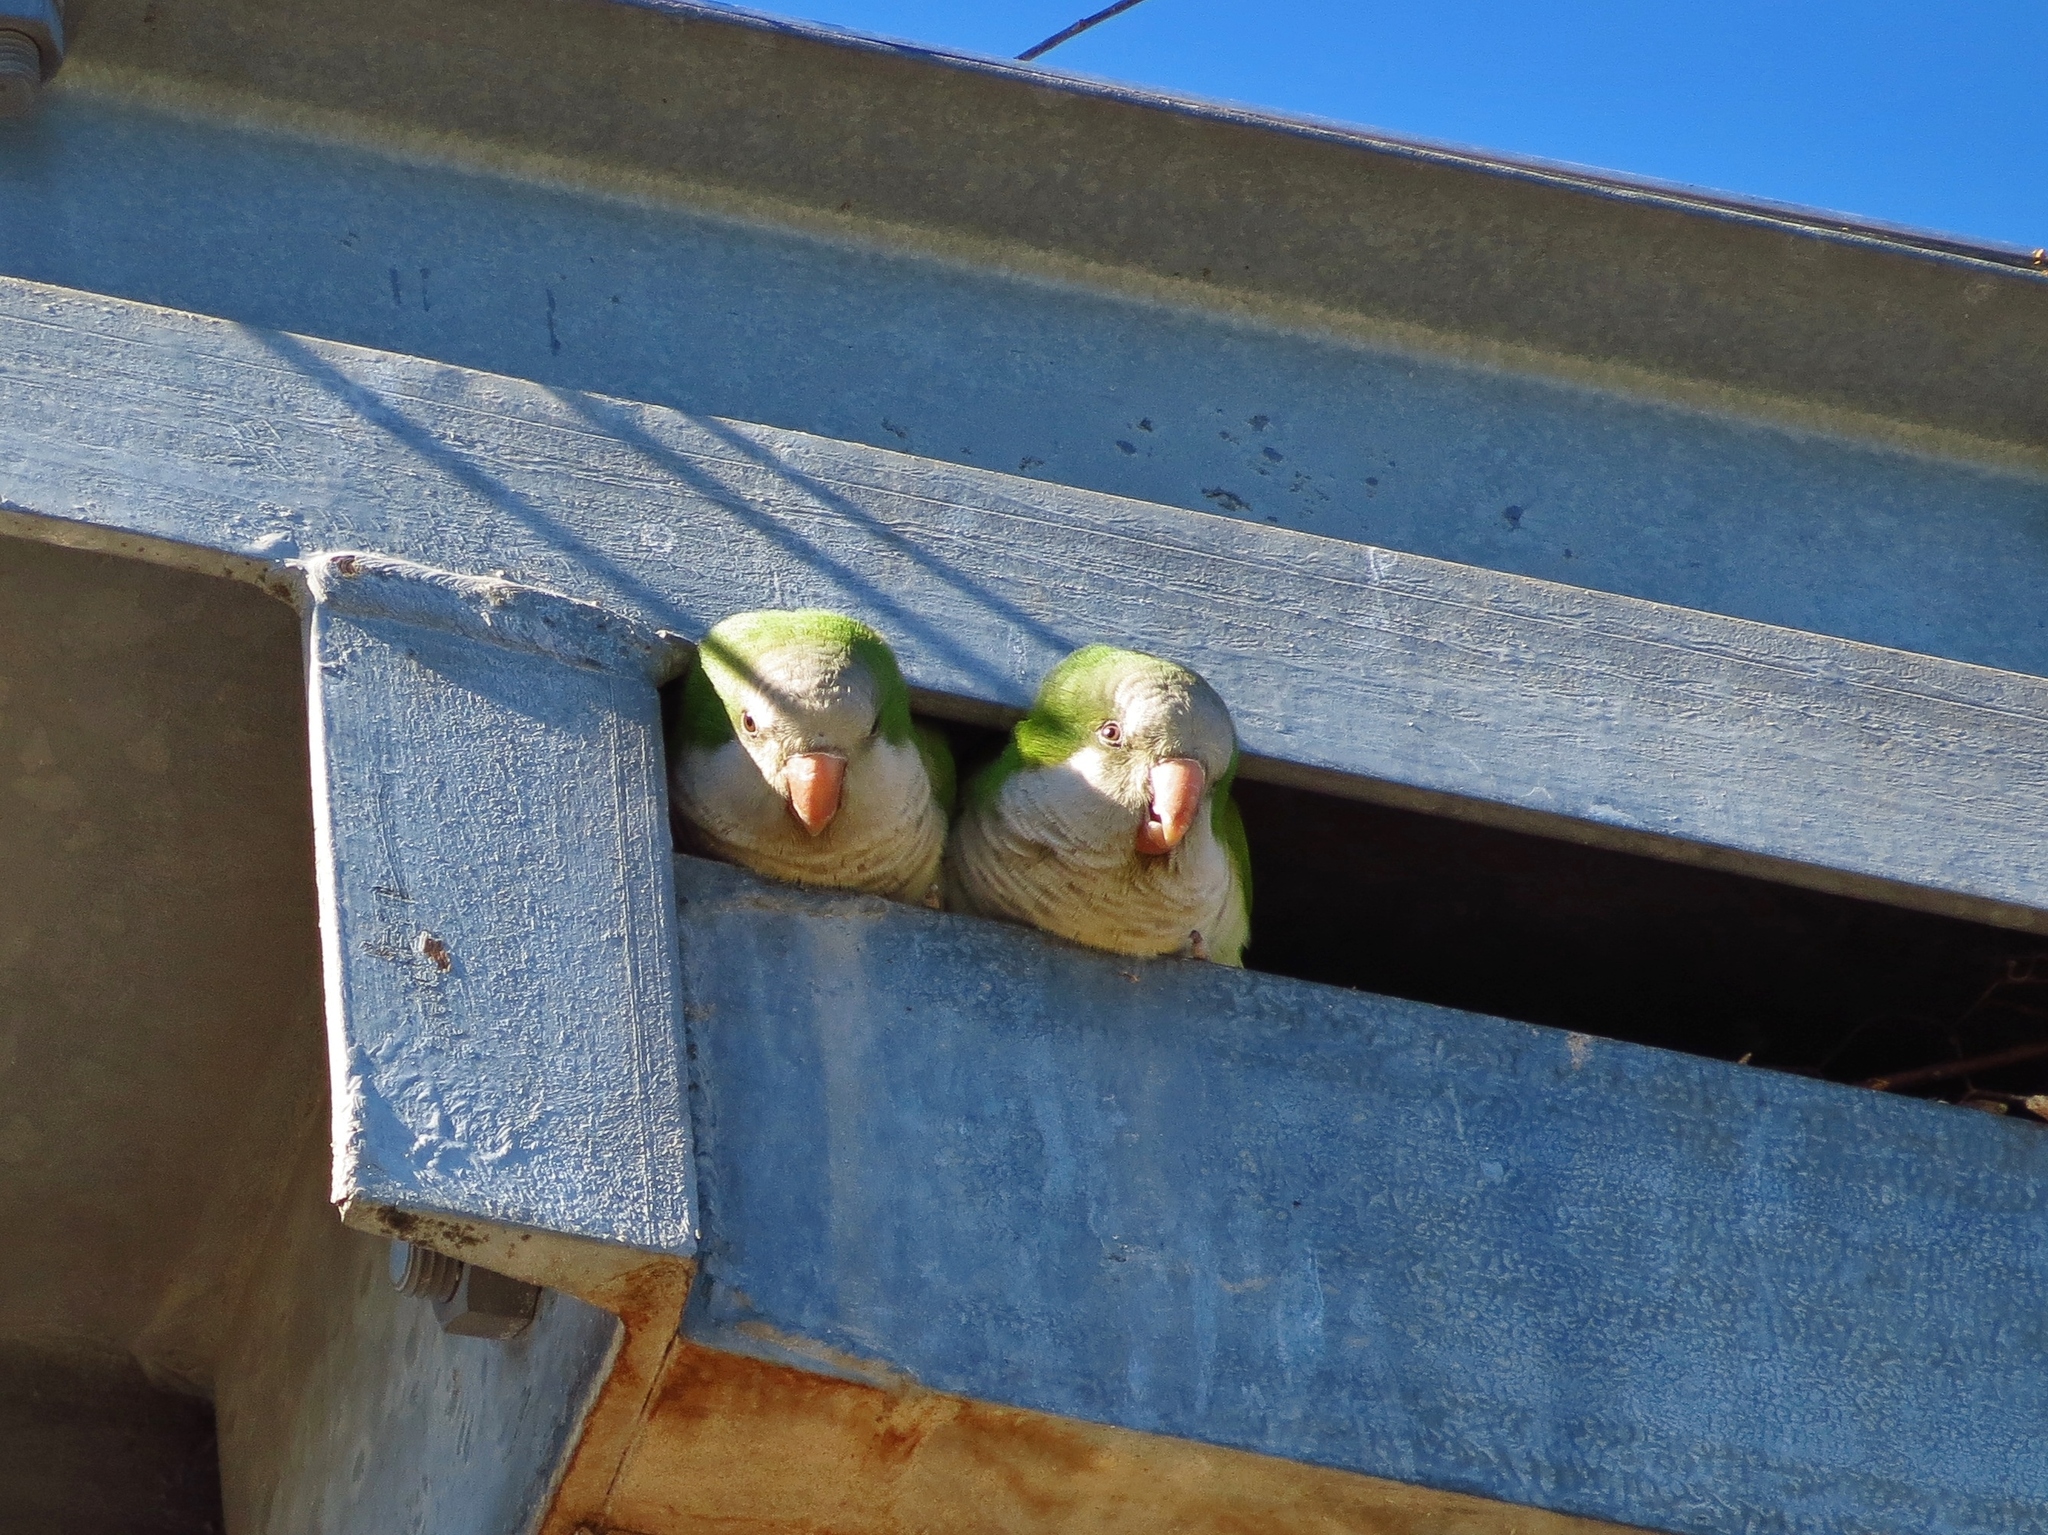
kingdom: Animalia
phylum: Chordata
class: Aves
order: Psittaciformes
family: Psittacidae
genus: Myiopsitta
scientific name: Myiopsitta monachus
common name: Monk parakeet
